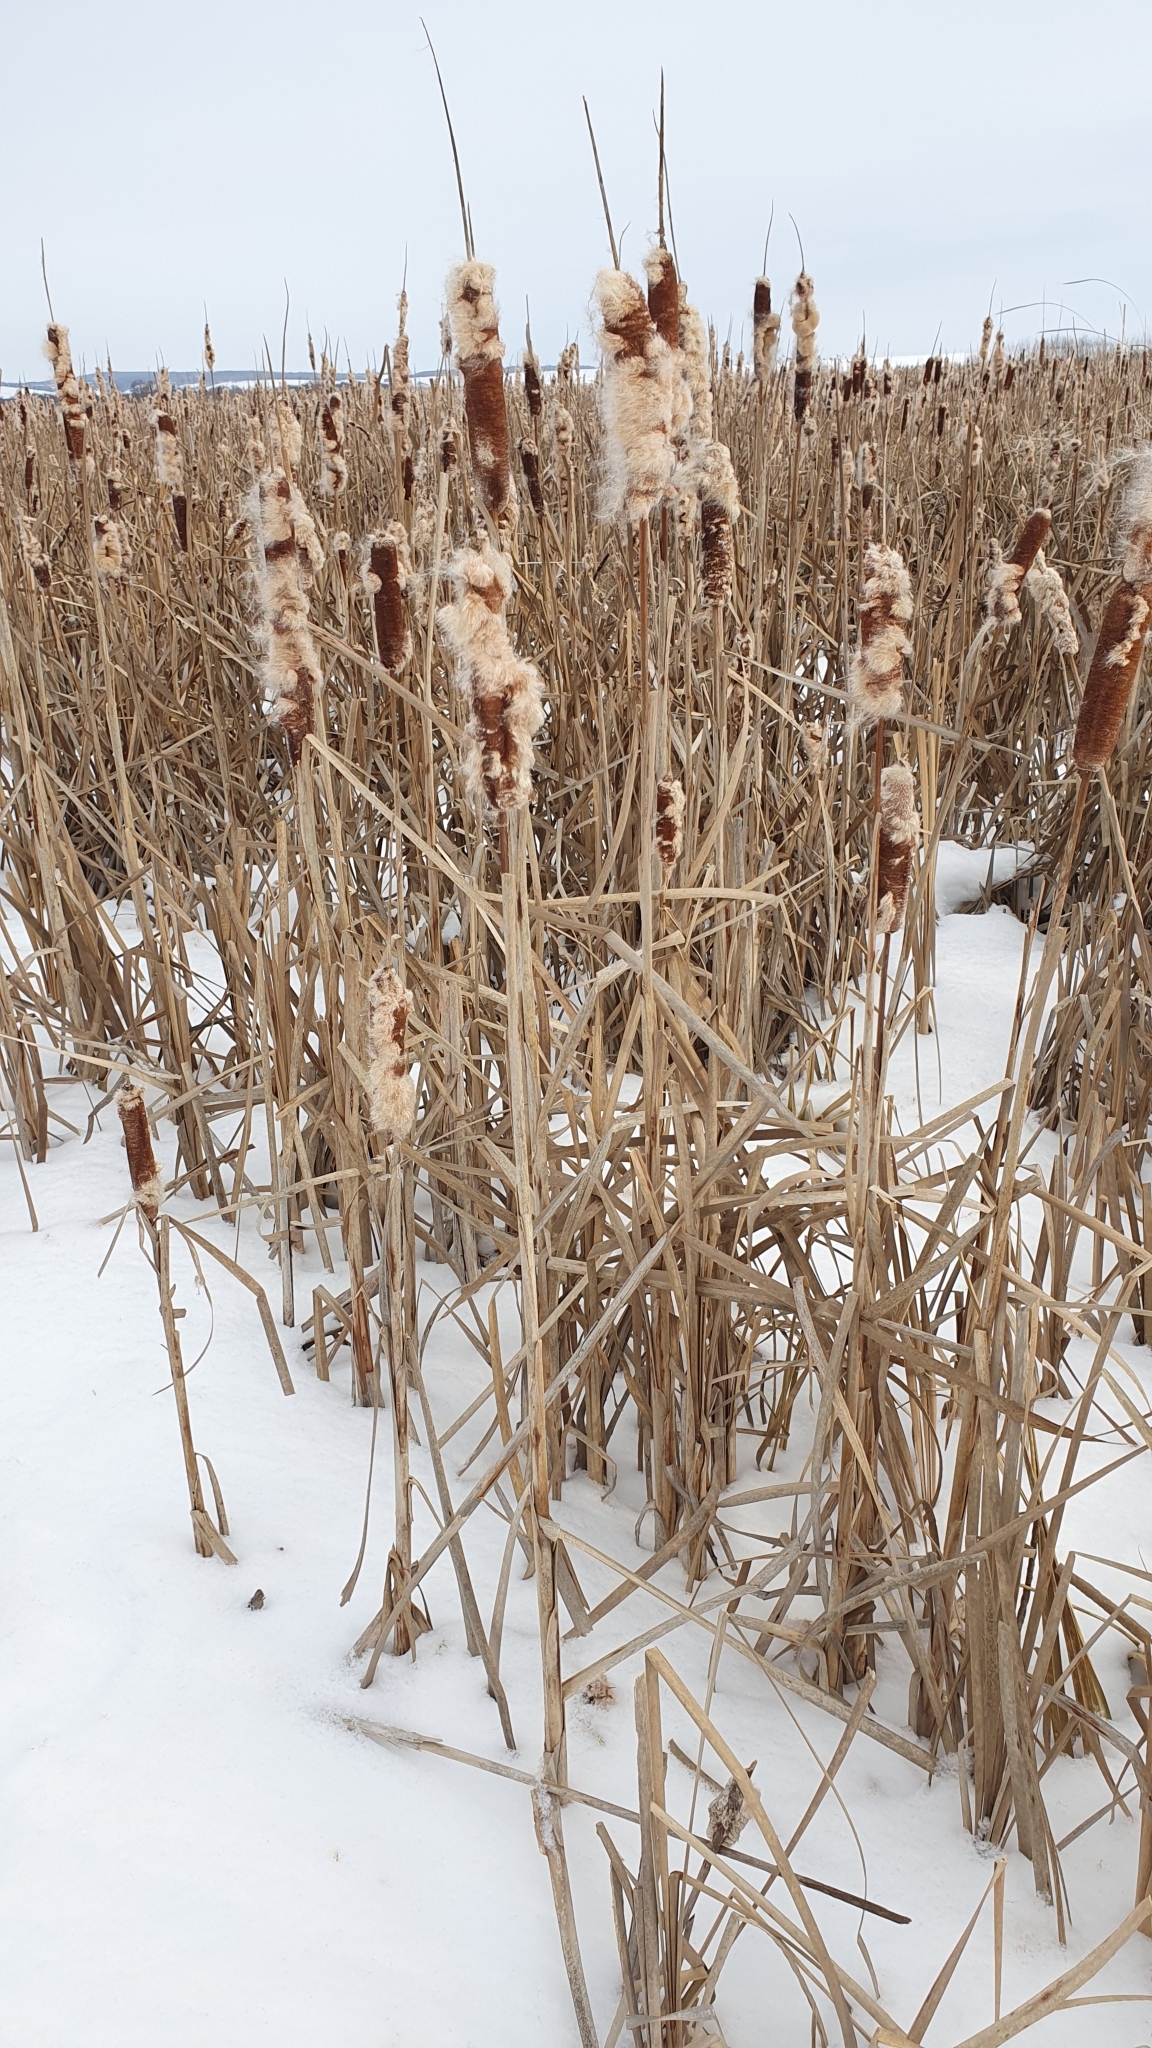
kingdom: Plantae
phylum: Tracheophyta
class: Liliopsida
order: Poales
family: Typhaceae
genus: Typha
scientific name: Typha latifolia
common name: Broadleaf cattail
